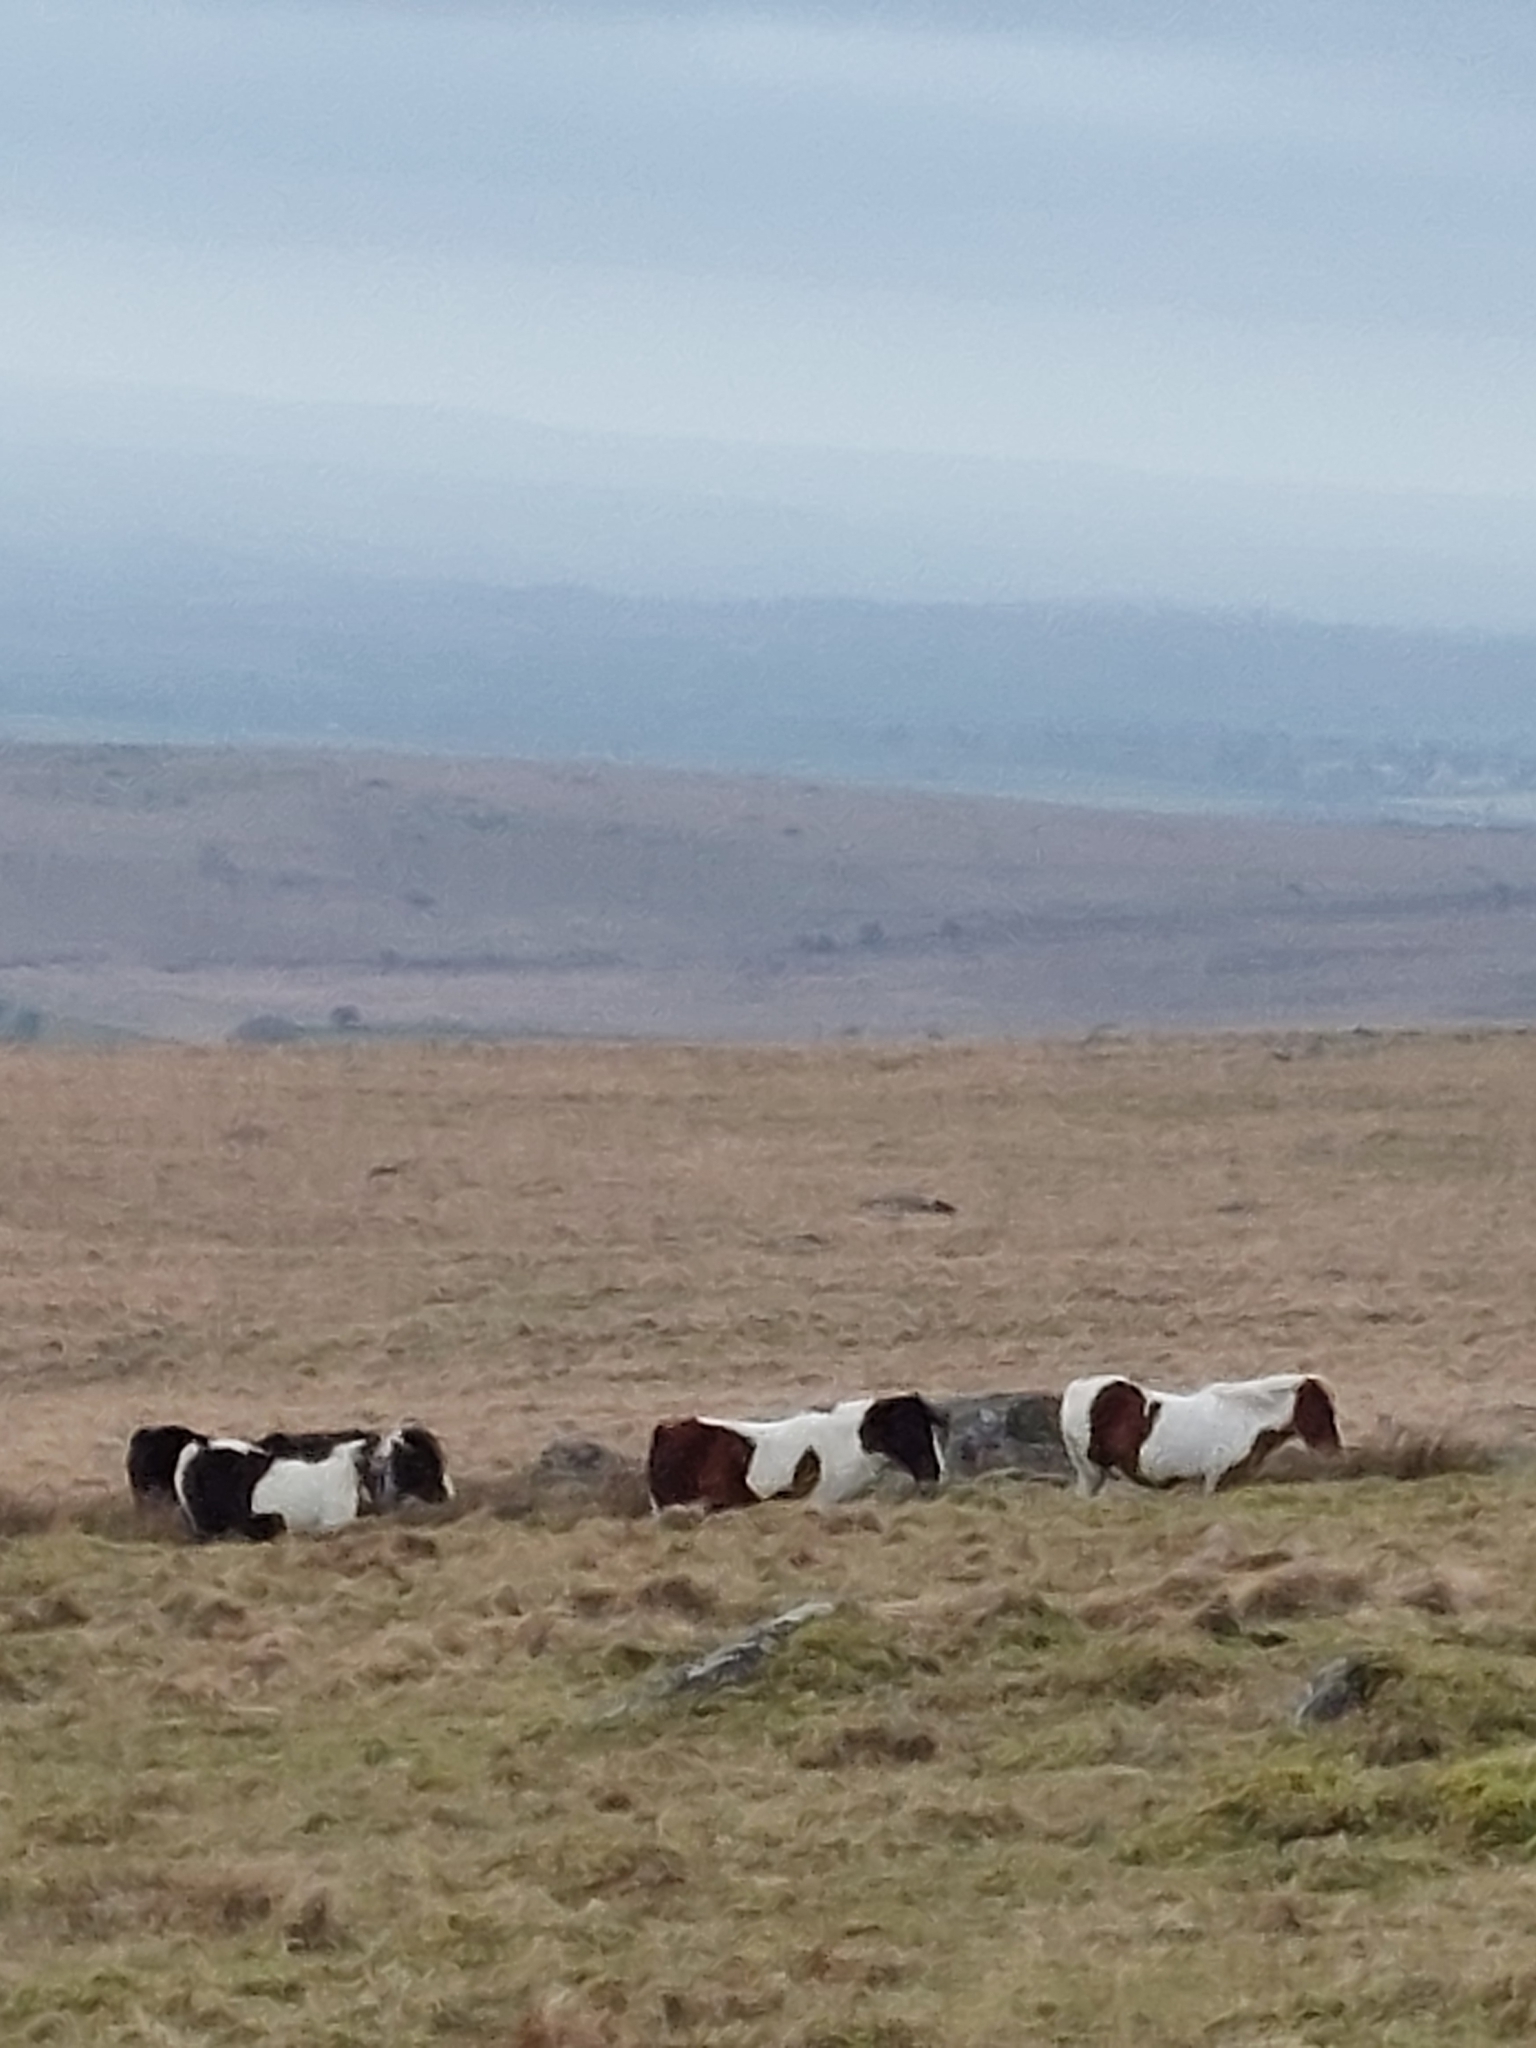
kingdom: Animalia
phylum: Chordata
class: Mammalia
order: Perissodactyla
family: Equidae
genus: Equus
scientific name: Equus caballus
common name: Horse
